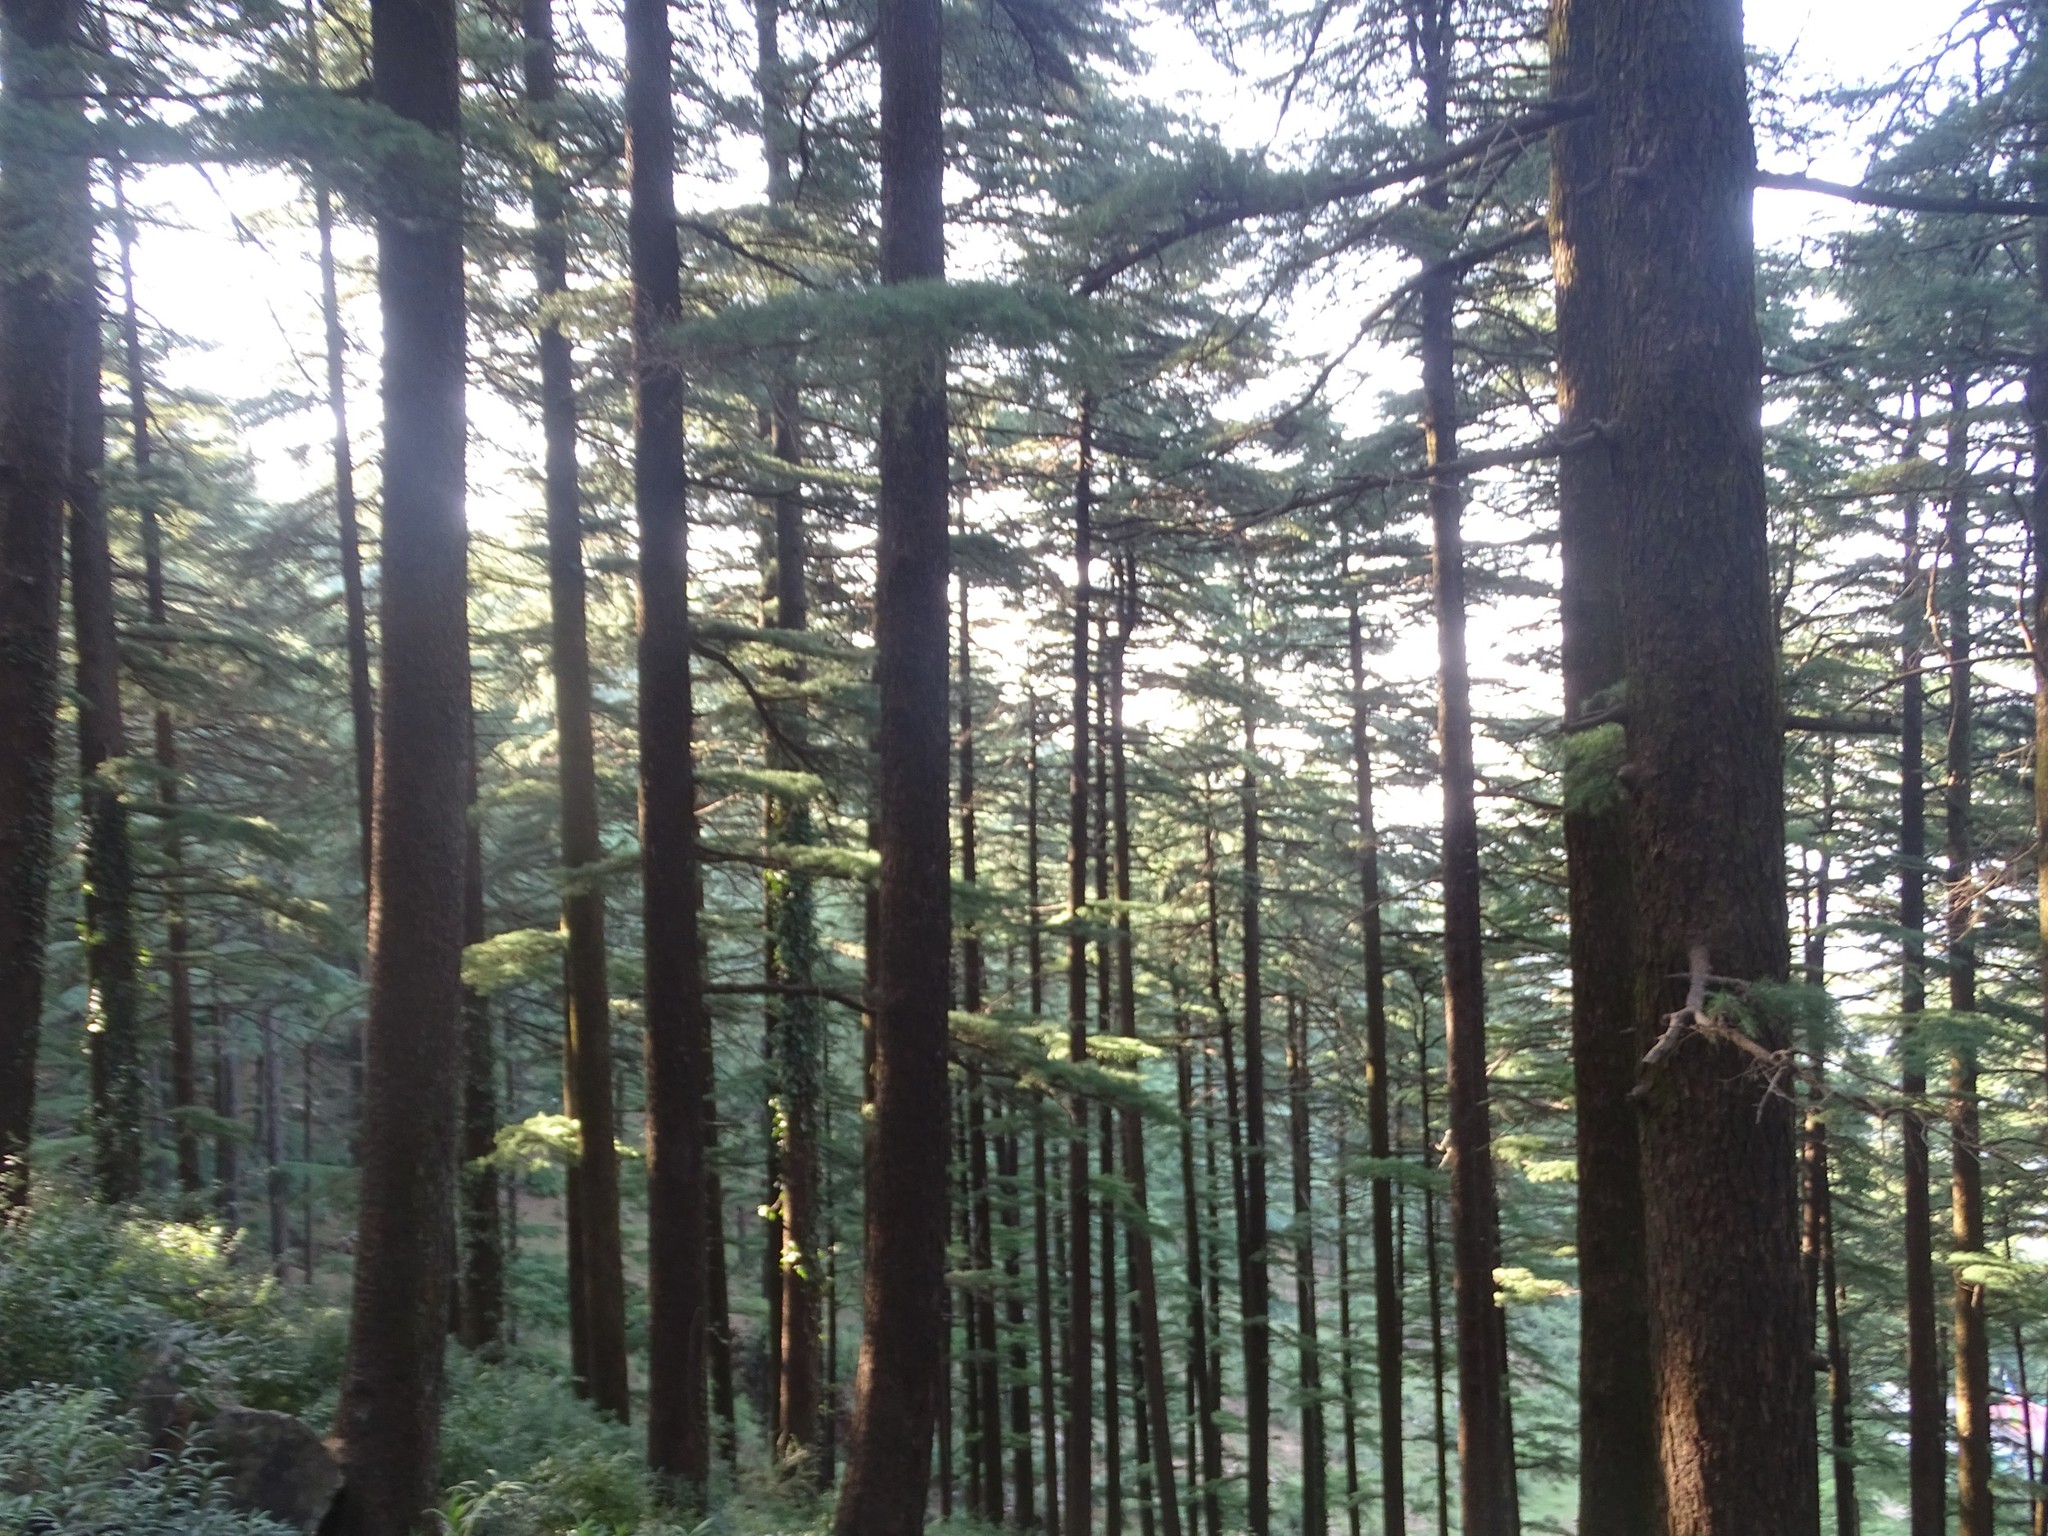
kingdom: Plantae
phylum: Tracheophyta
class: Pinopsida
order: Pinales
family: Pinaceae
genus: Cedrus
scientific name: Cedrus deodara
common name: Deodar
